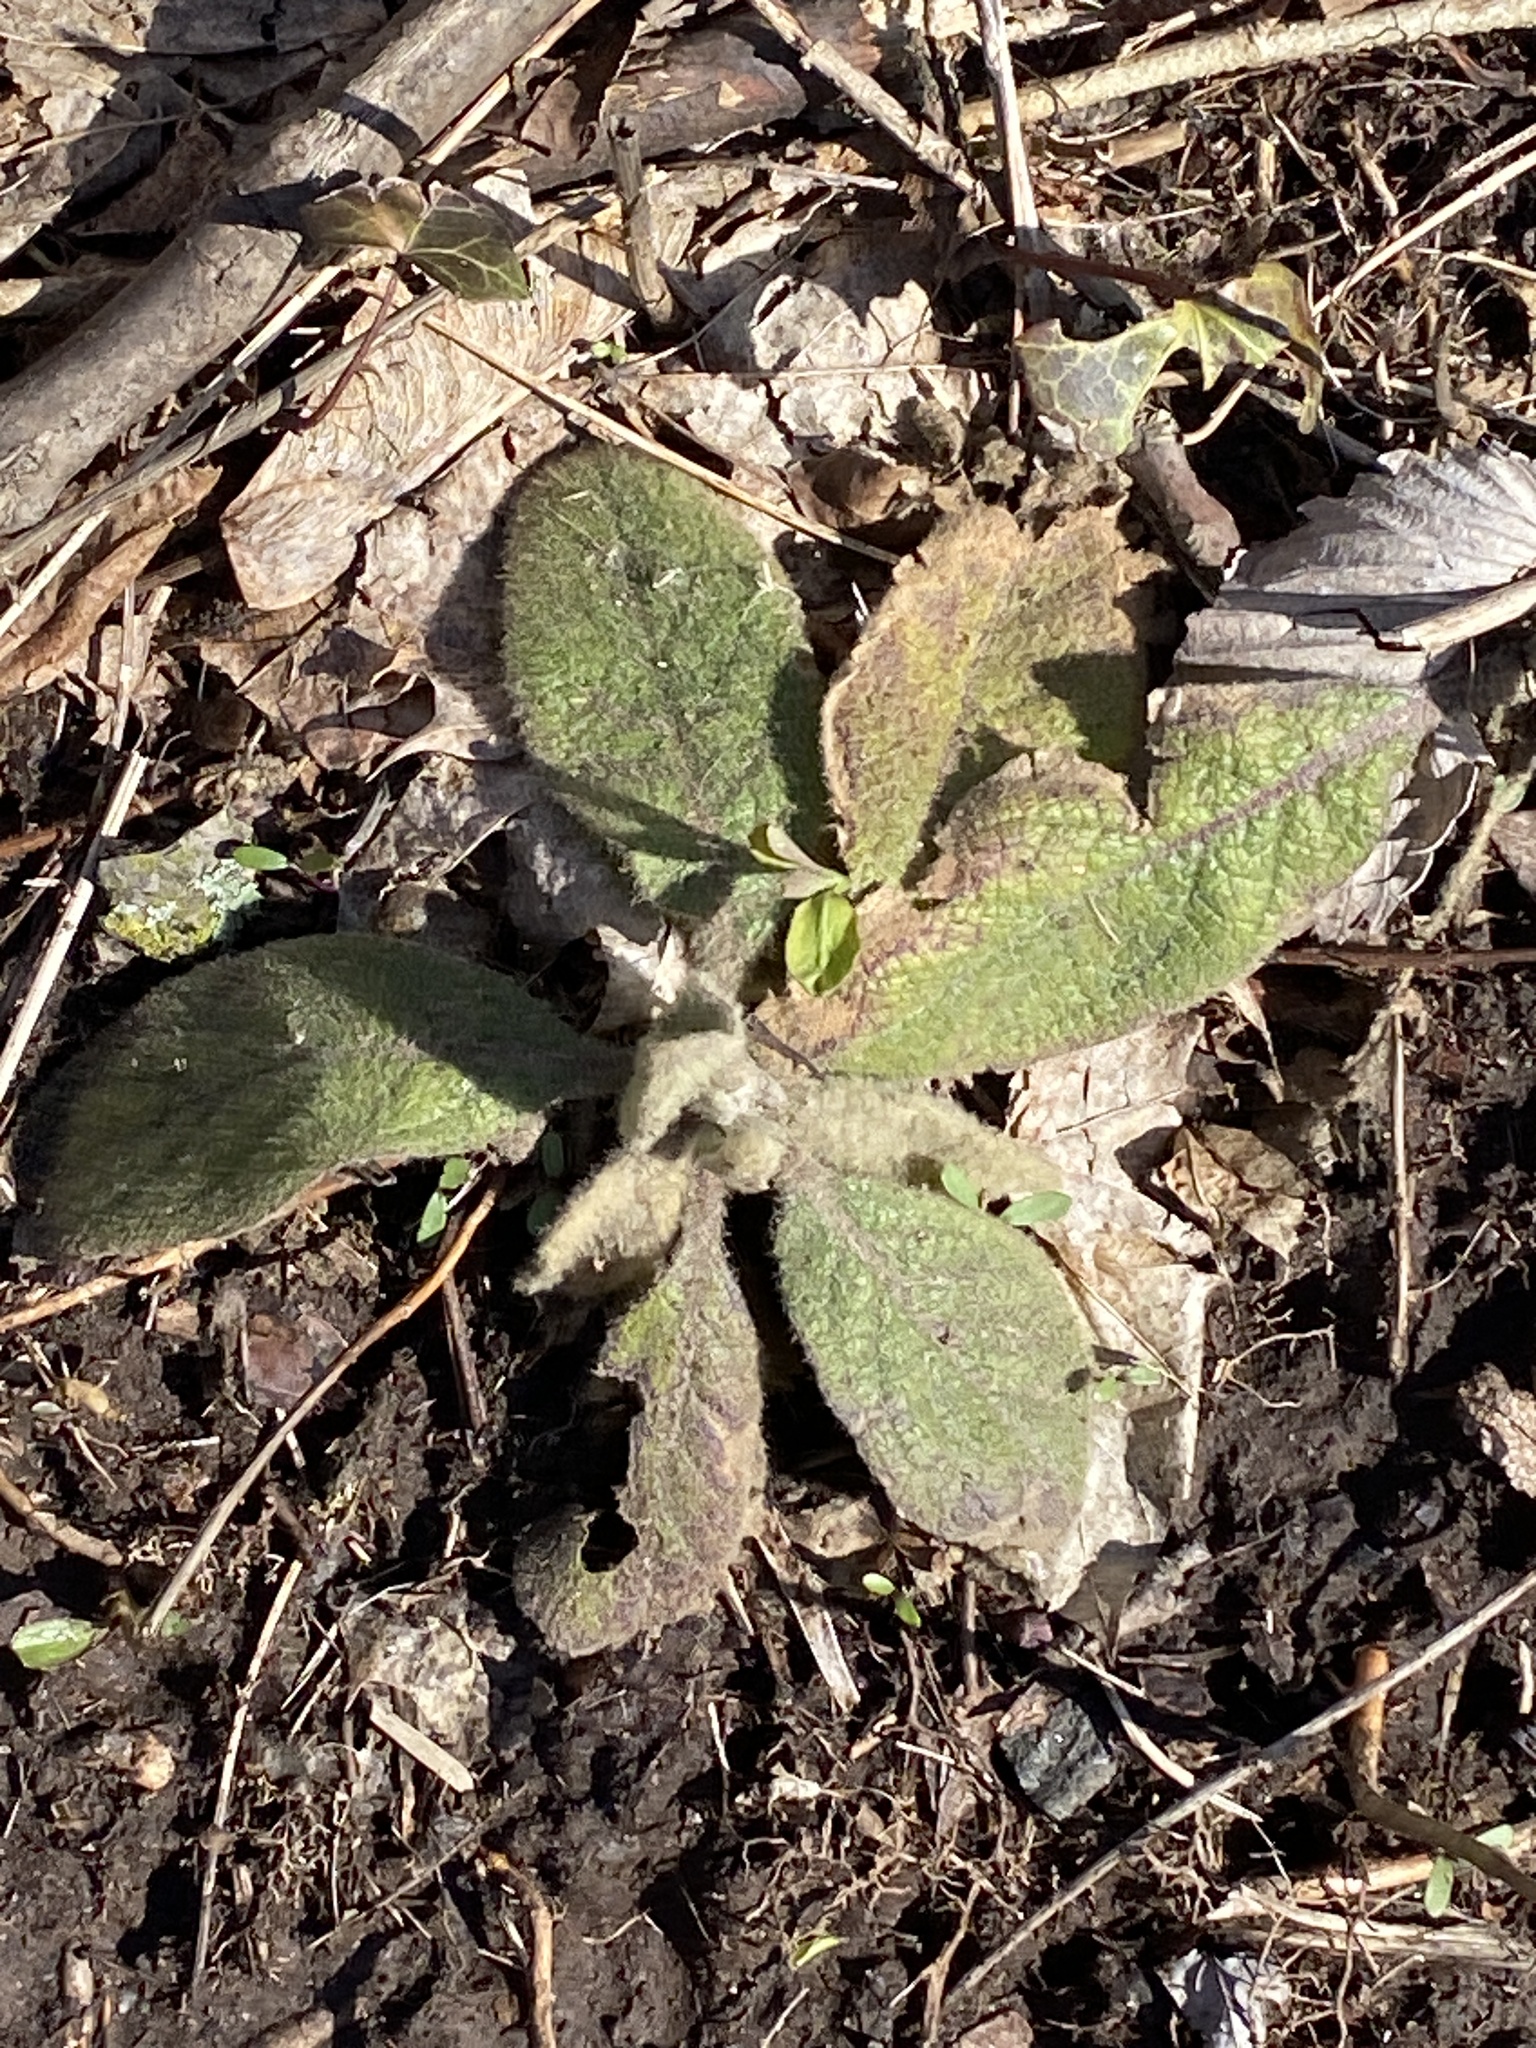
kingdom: Plantae
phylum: Tracheophyta
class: Magnoliopsida
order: Lamiales
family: Scrophulariaceae
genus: Verbascum
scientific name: Verbascum thapsus
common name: Common mullein
